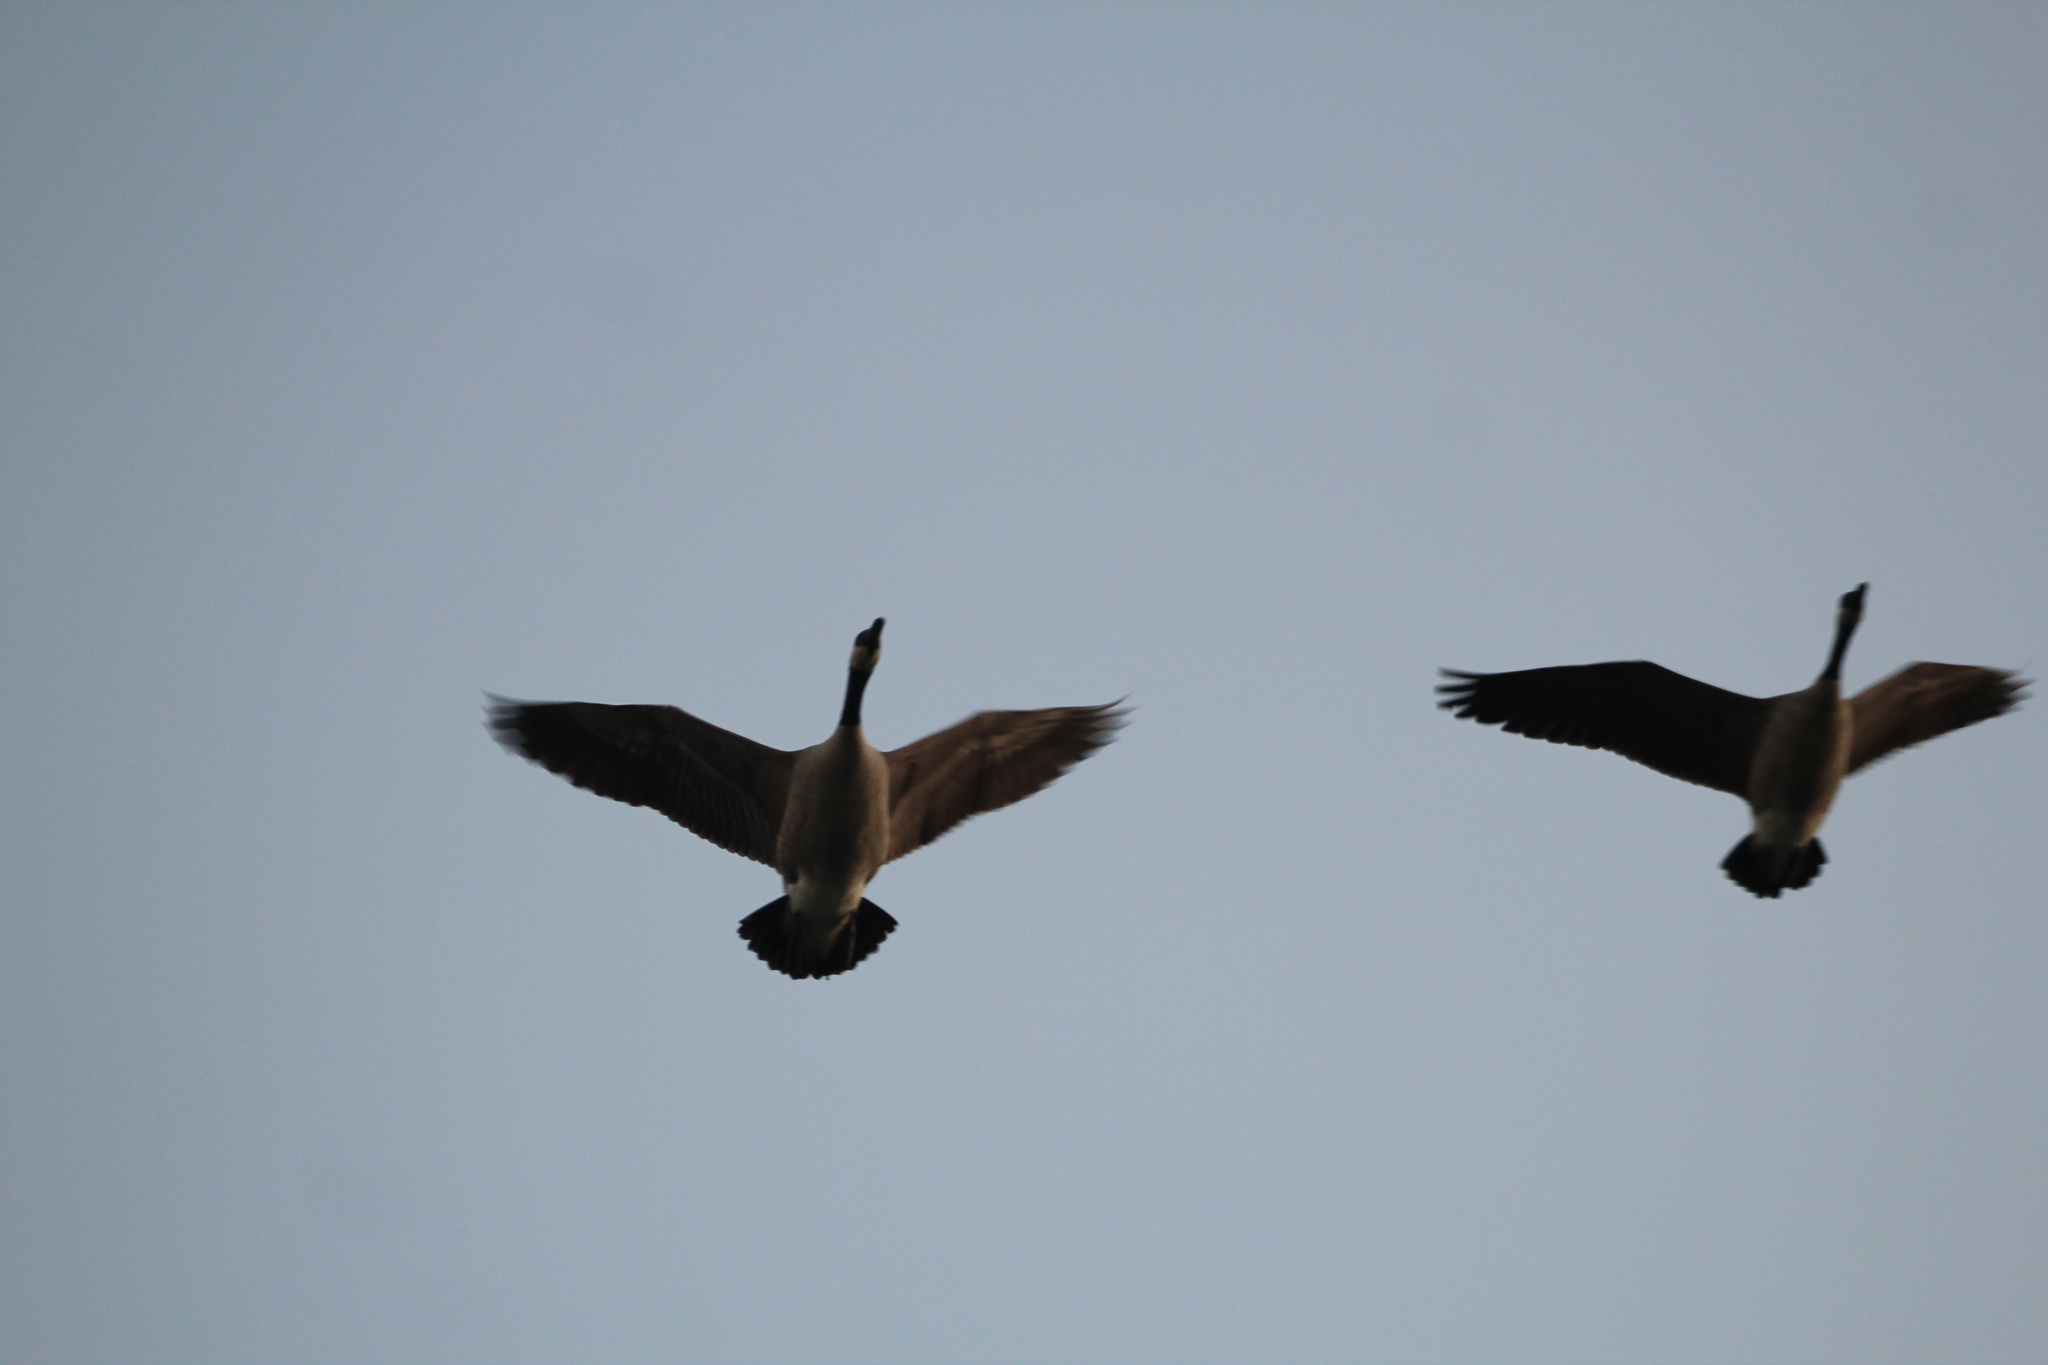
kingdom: Animalia
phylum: Chordata
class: Aves
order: Anseriformes
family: Anatidae
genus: Branta
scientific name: Branta canadensis
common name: Canada goose
